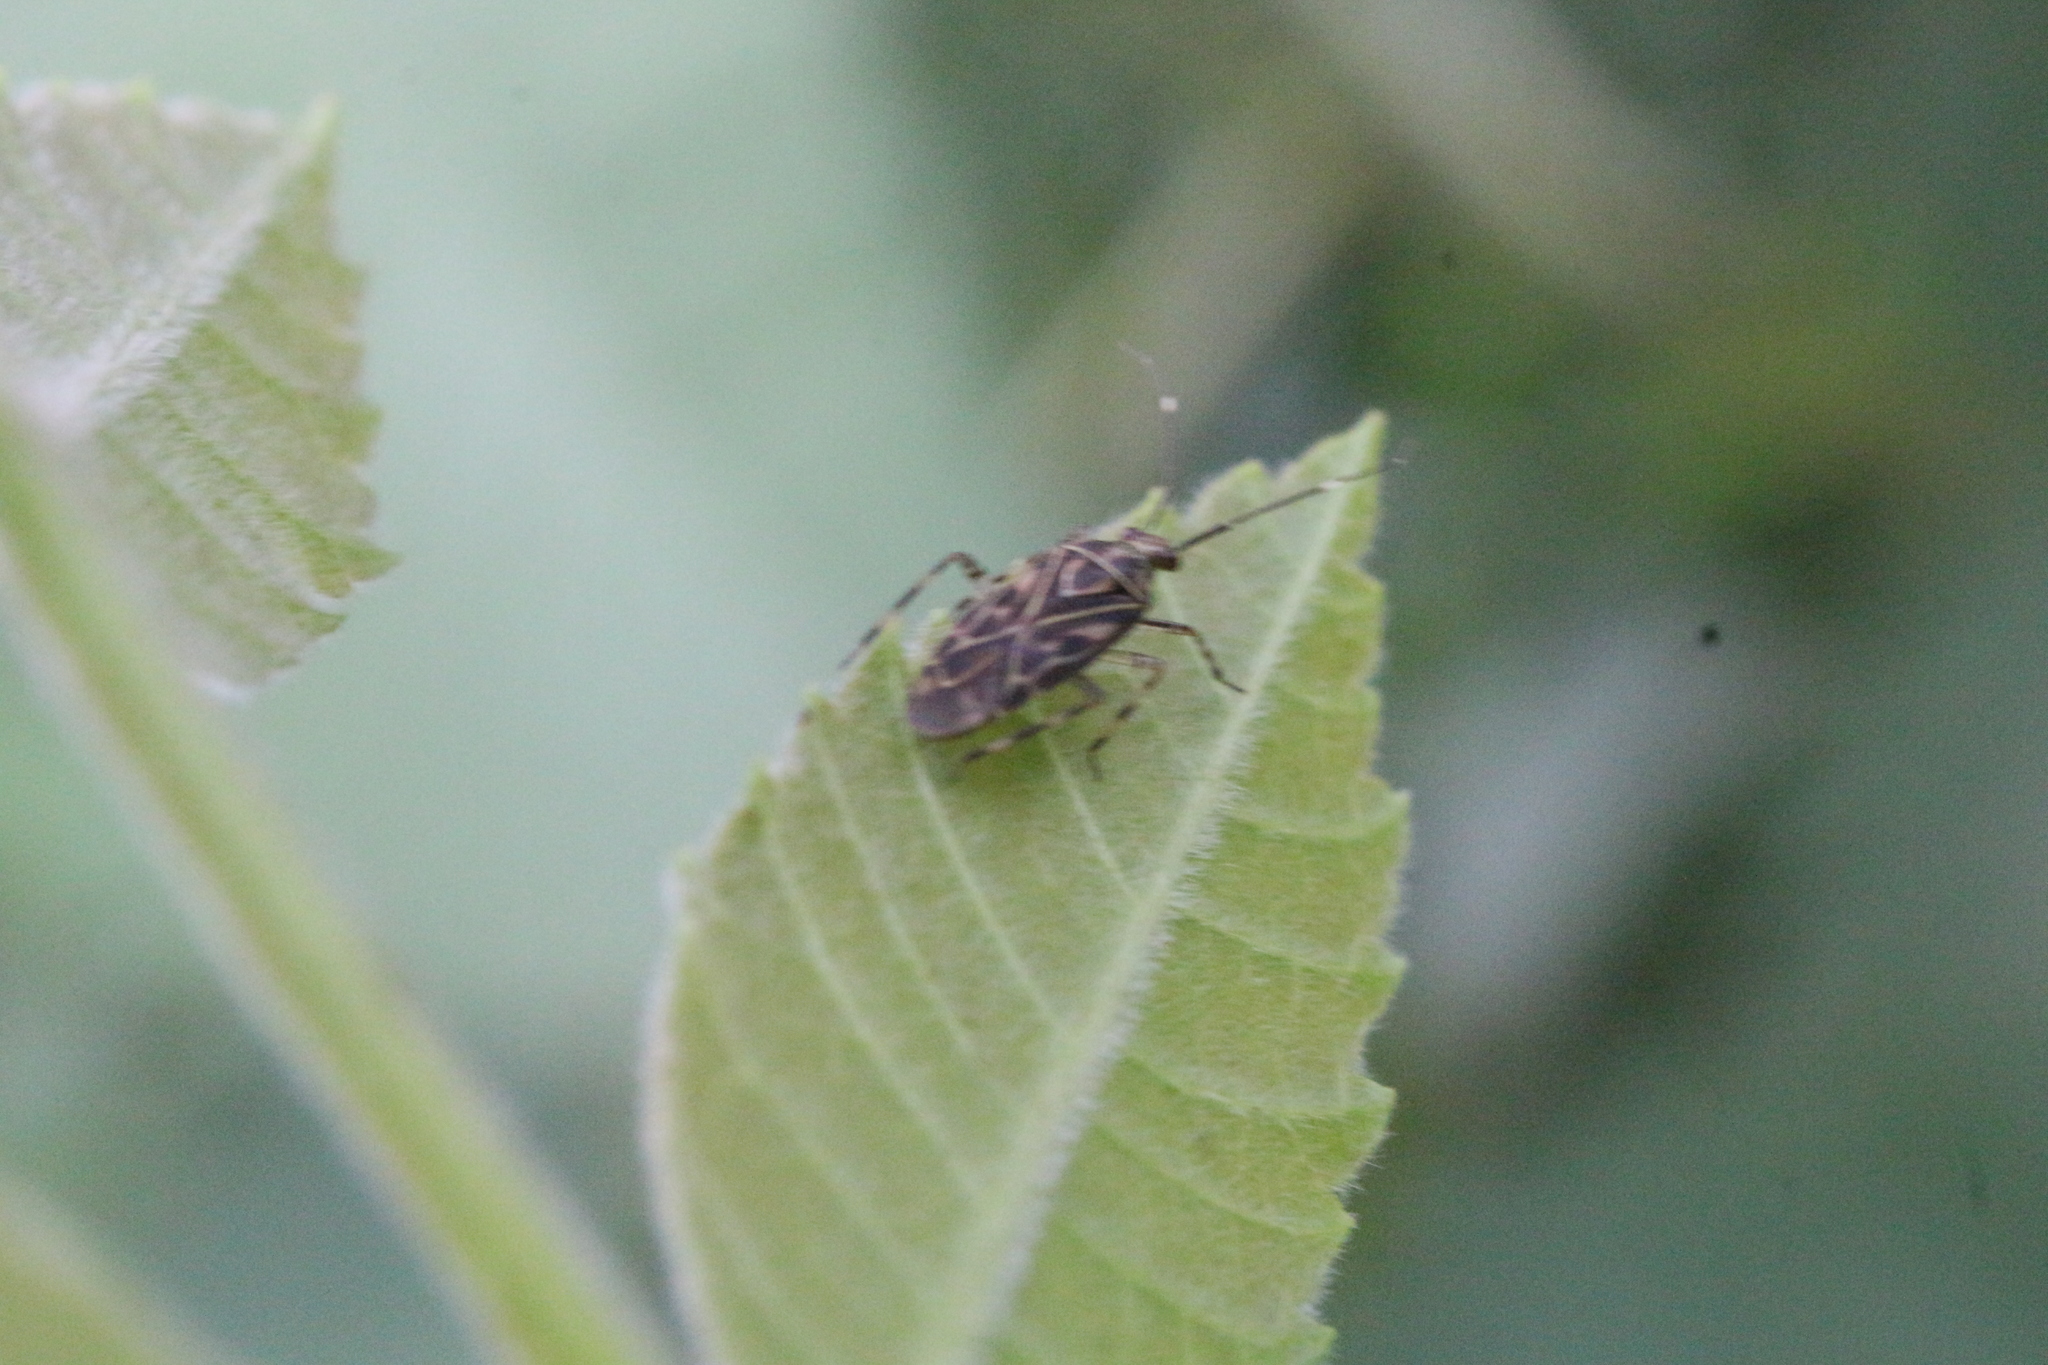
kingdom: Animalia
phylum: Arthropoda
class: Insecta
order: Hemiptera
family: Miridae
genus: Piasus
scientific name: Piasus cribricollis
